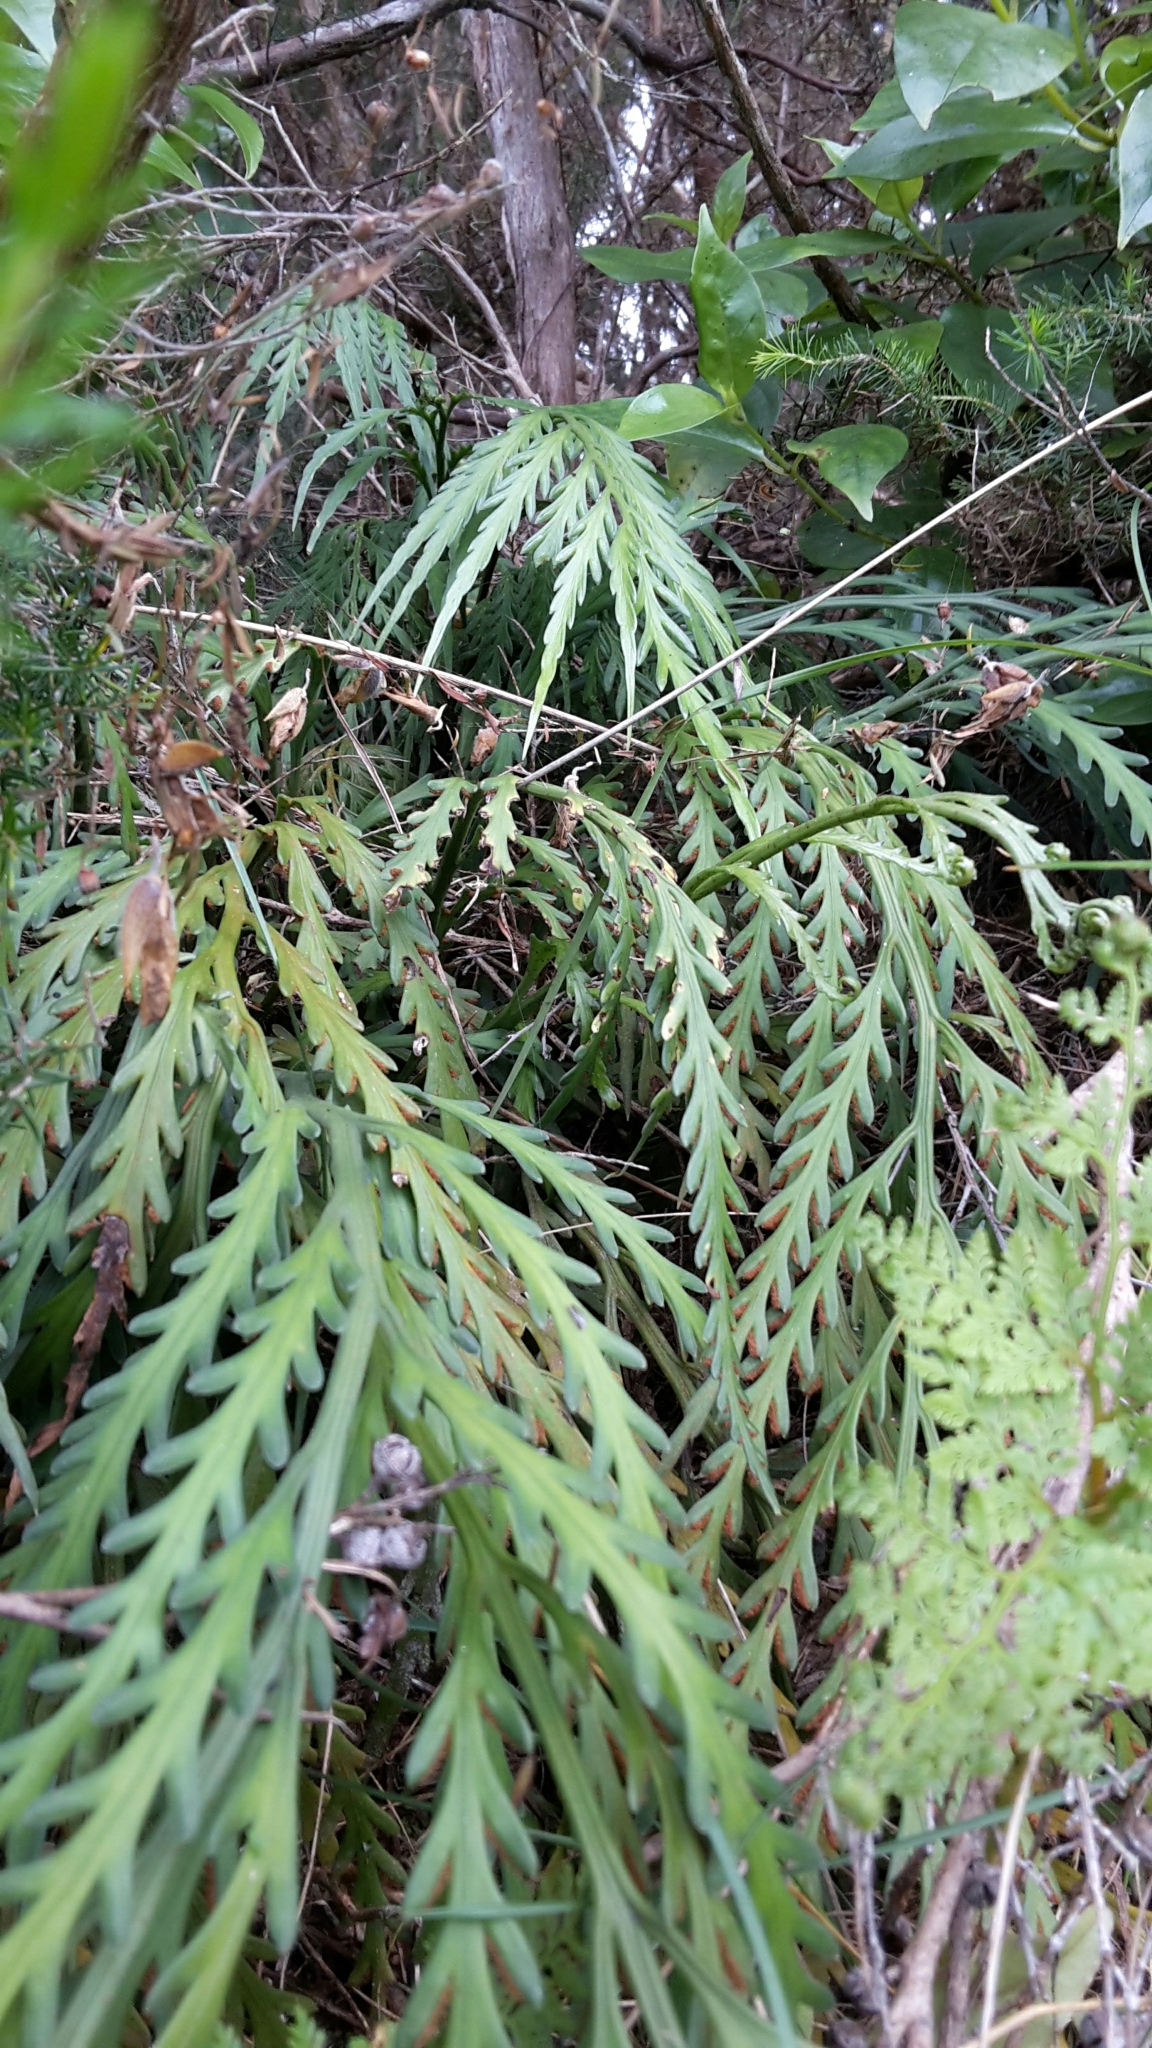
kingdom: Plantae
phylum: Tracheophyta
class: Polypodiopsida
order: Polypodiales
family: Aspleniaceae
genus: Asplenium
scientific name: Asplenium flaccidum
